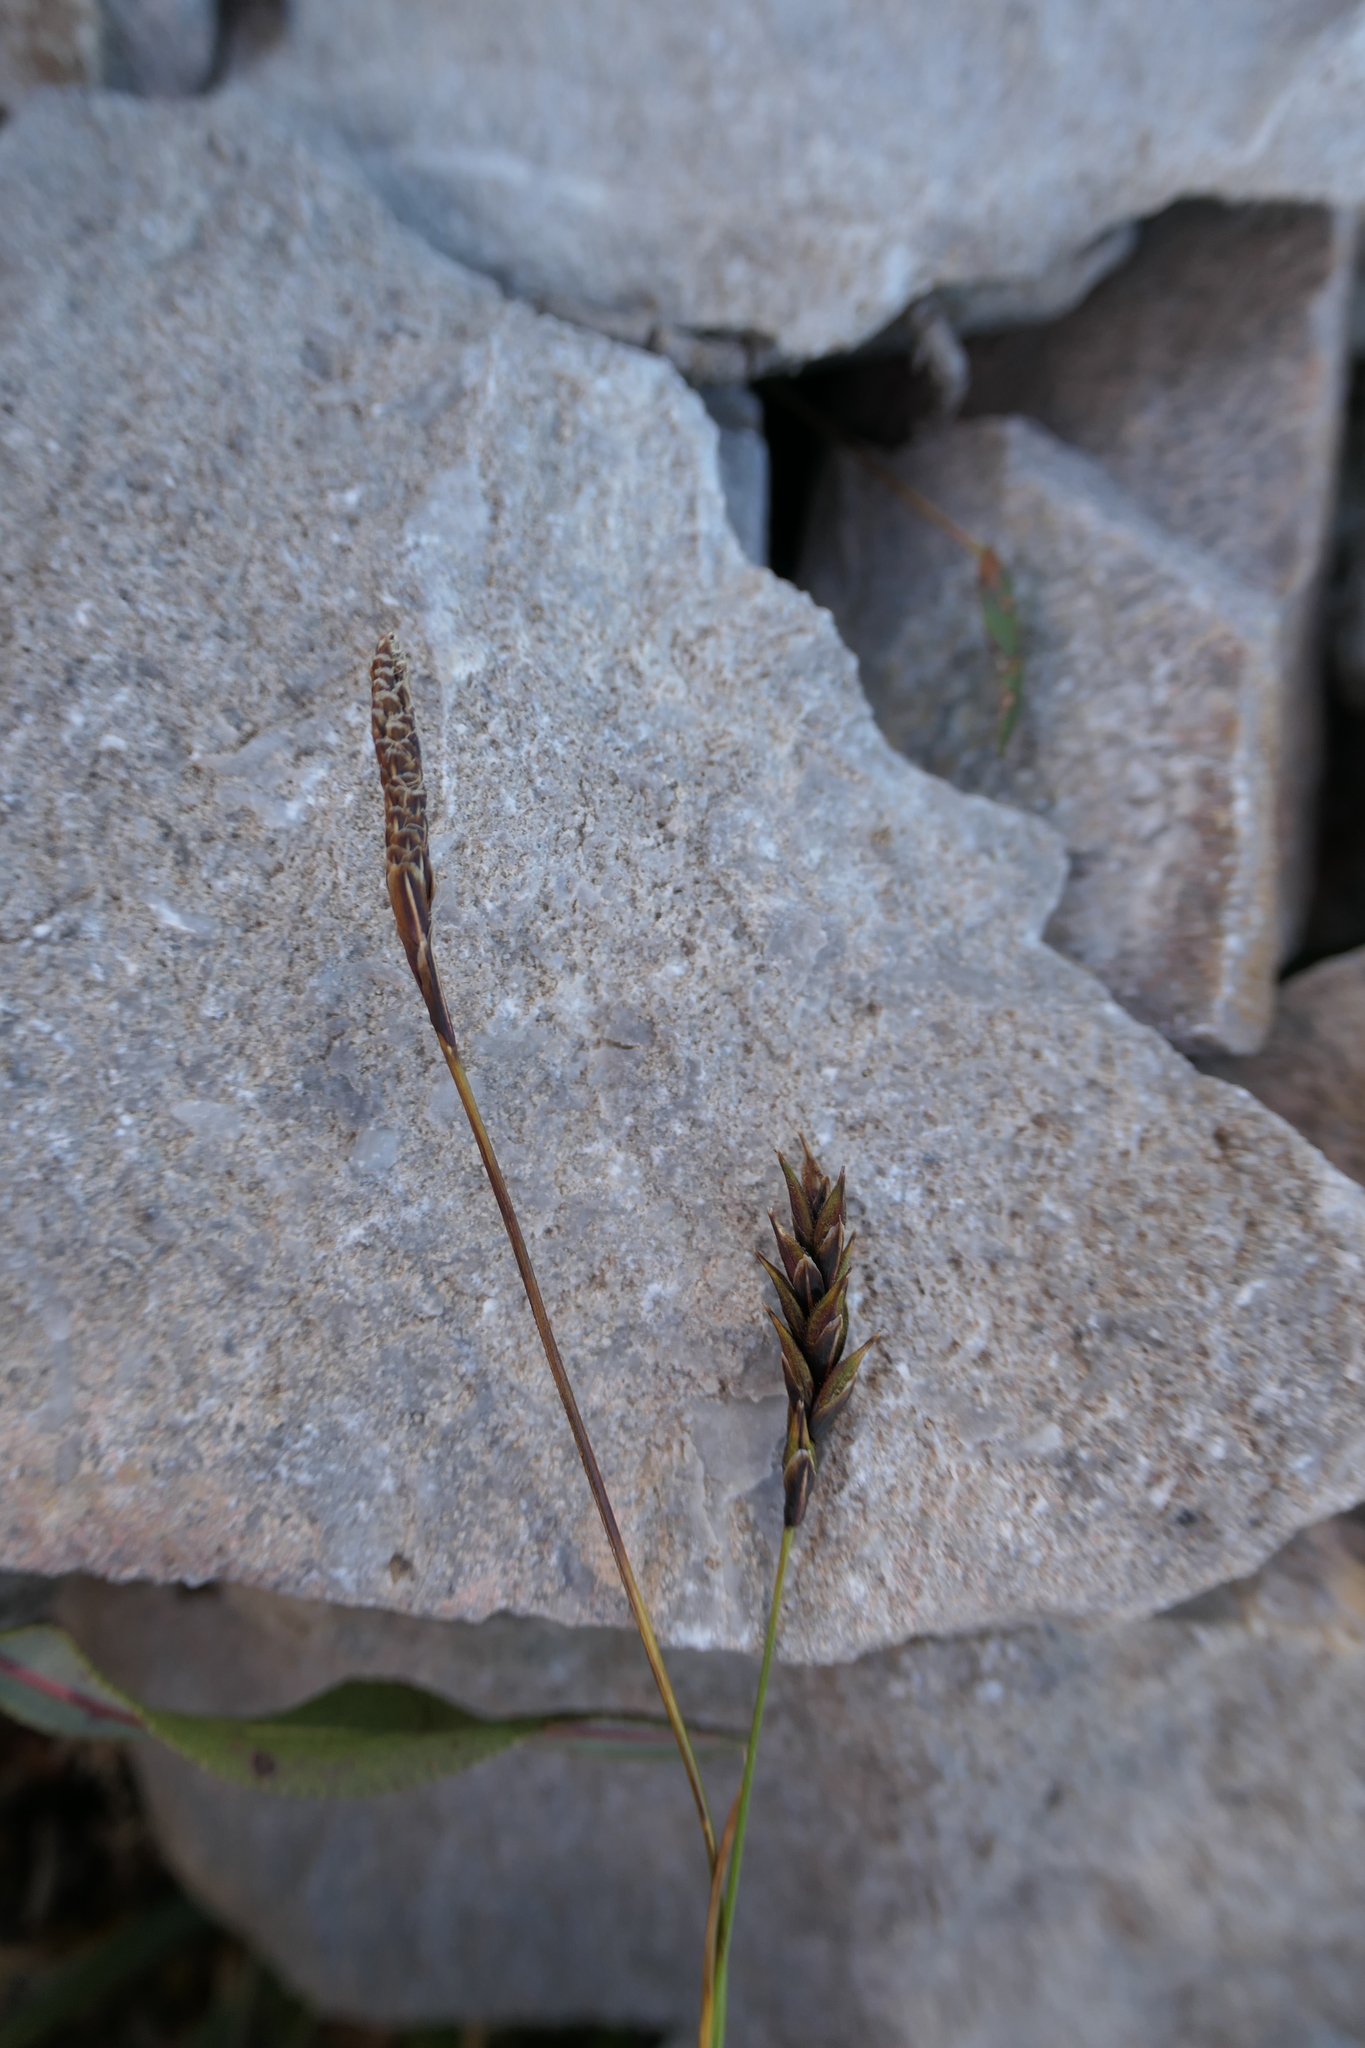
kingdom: Plantae
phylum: Tracheophyta
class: Liliopsida
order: Poales
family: Cyperaceae
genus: Carex
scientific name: Carex sempervirens
